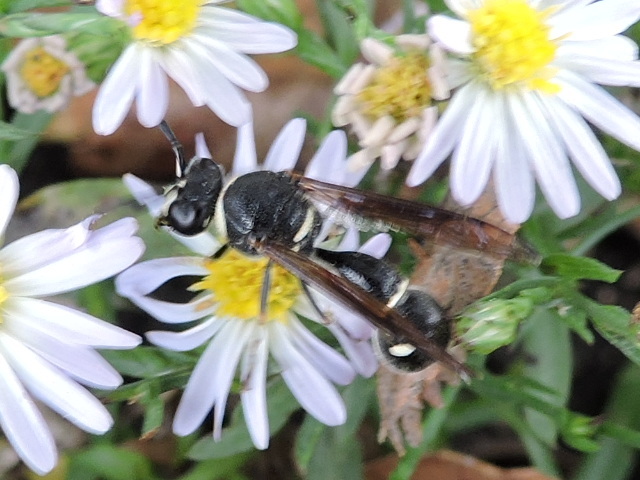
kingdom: Animalia
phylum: Arthropoda
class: Insecta
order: Hymenoptera
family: Vespidae
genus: Eumenes
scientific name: Eumenes fraternus
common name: Fraternal potter wasp
